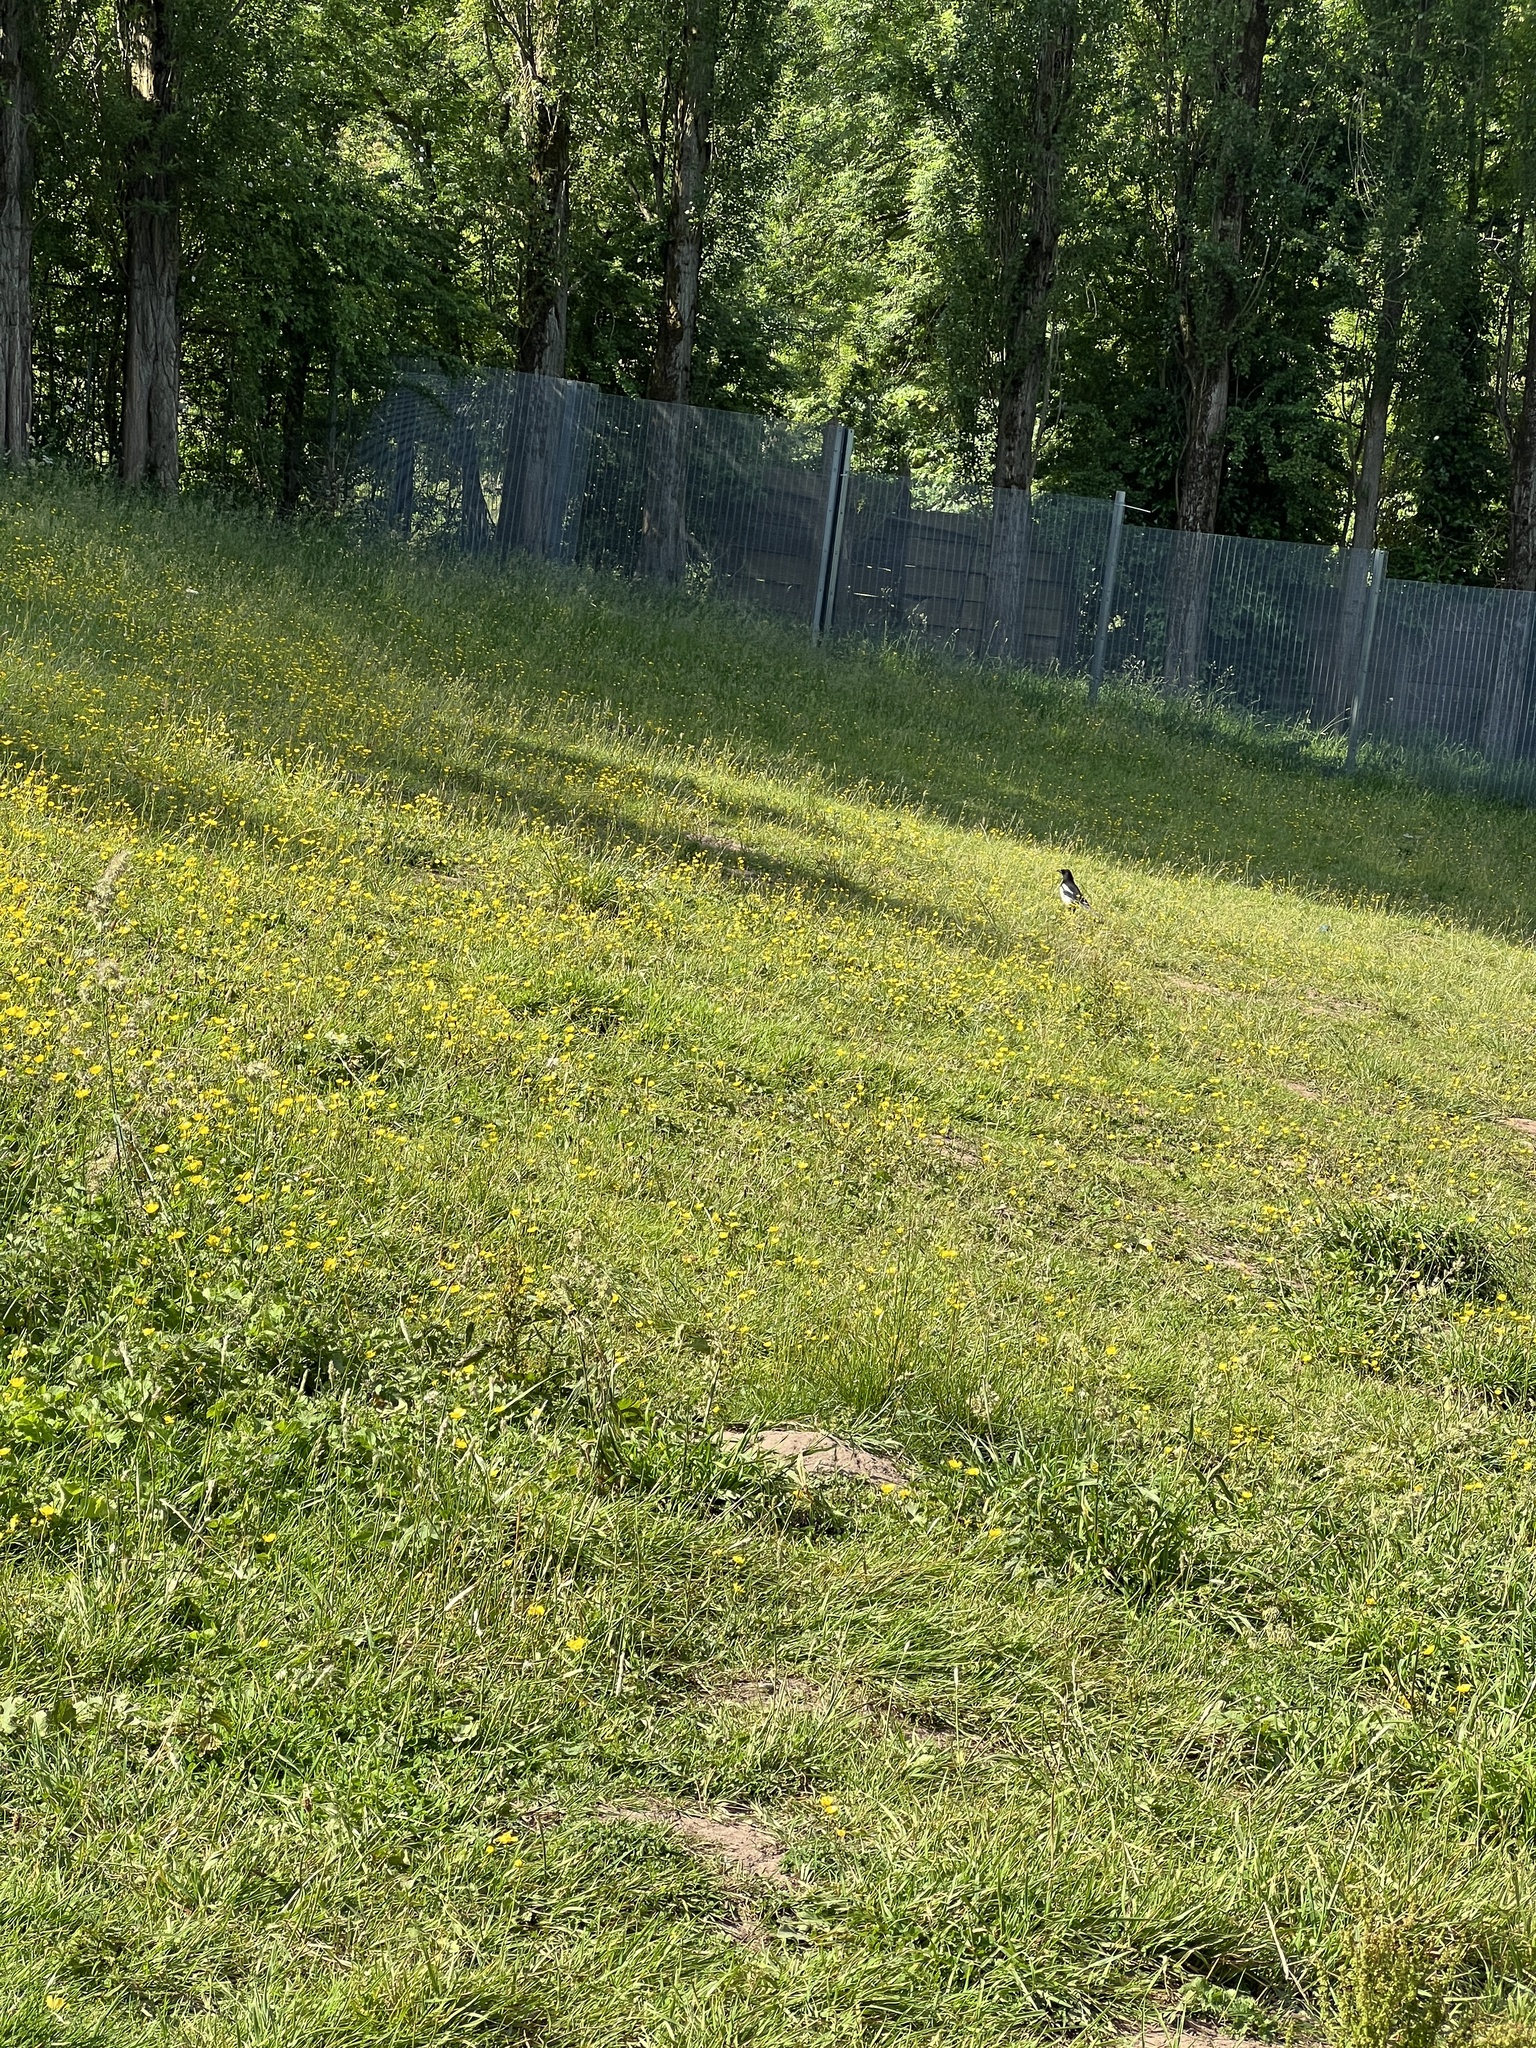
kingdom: Animalia
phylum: Chordata
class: Aves
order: Passeriformes
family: Corvidae
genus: Pica
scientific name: Pica pica
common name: Eurasian magpie
